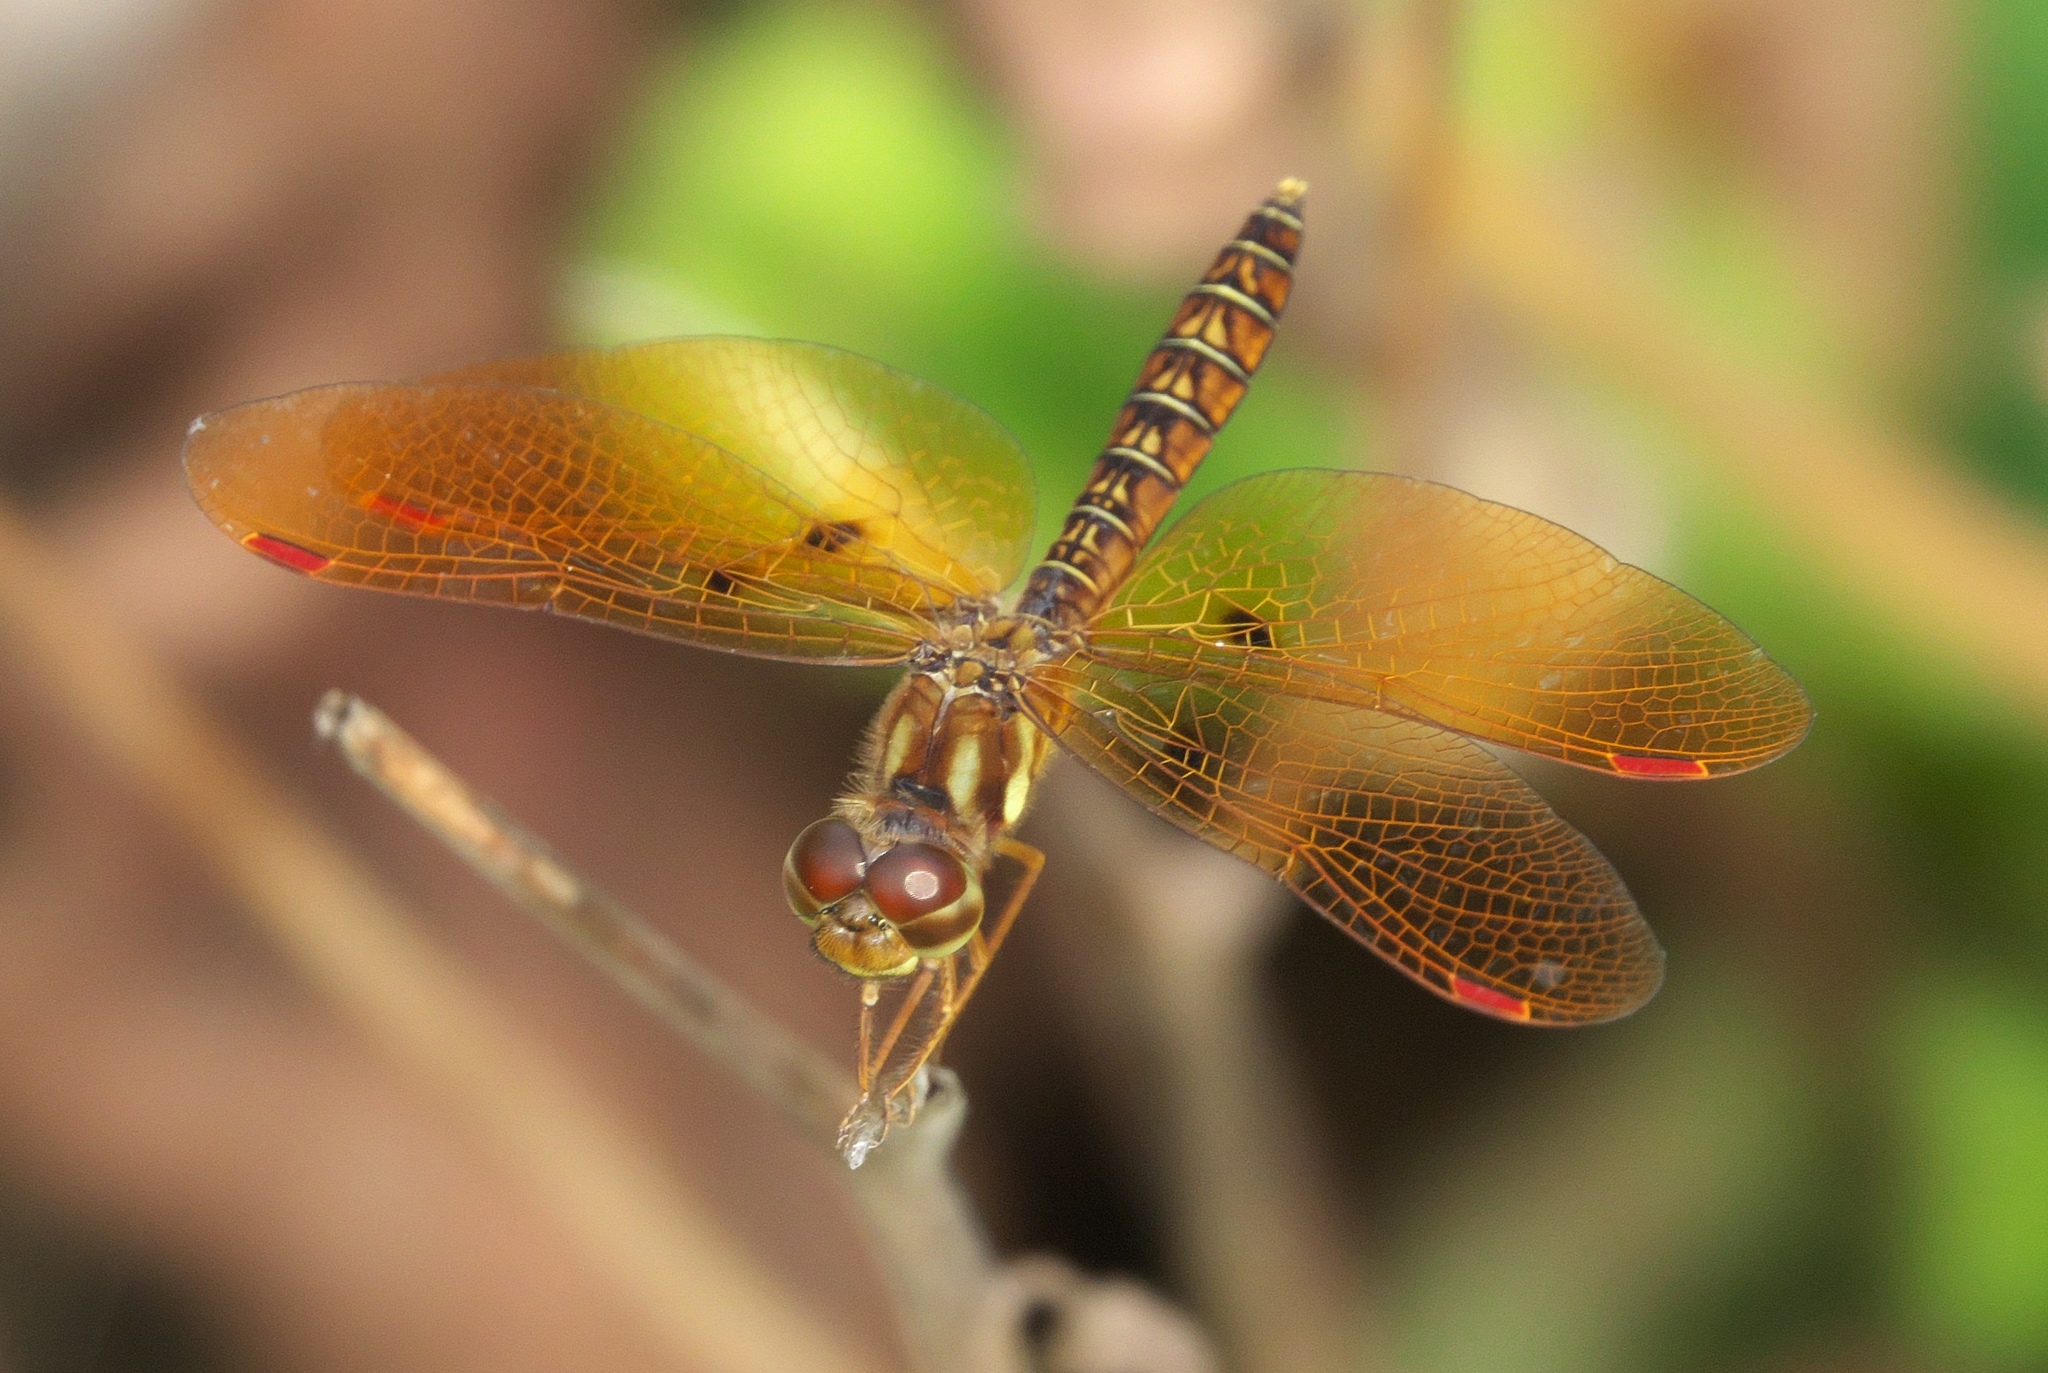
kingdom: Animalia
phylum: Arthropoda
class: Insecta
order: Odonata
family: Libellulidae
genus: Perithemis
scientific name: Perithemis tenera
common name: Eastern amberwing
